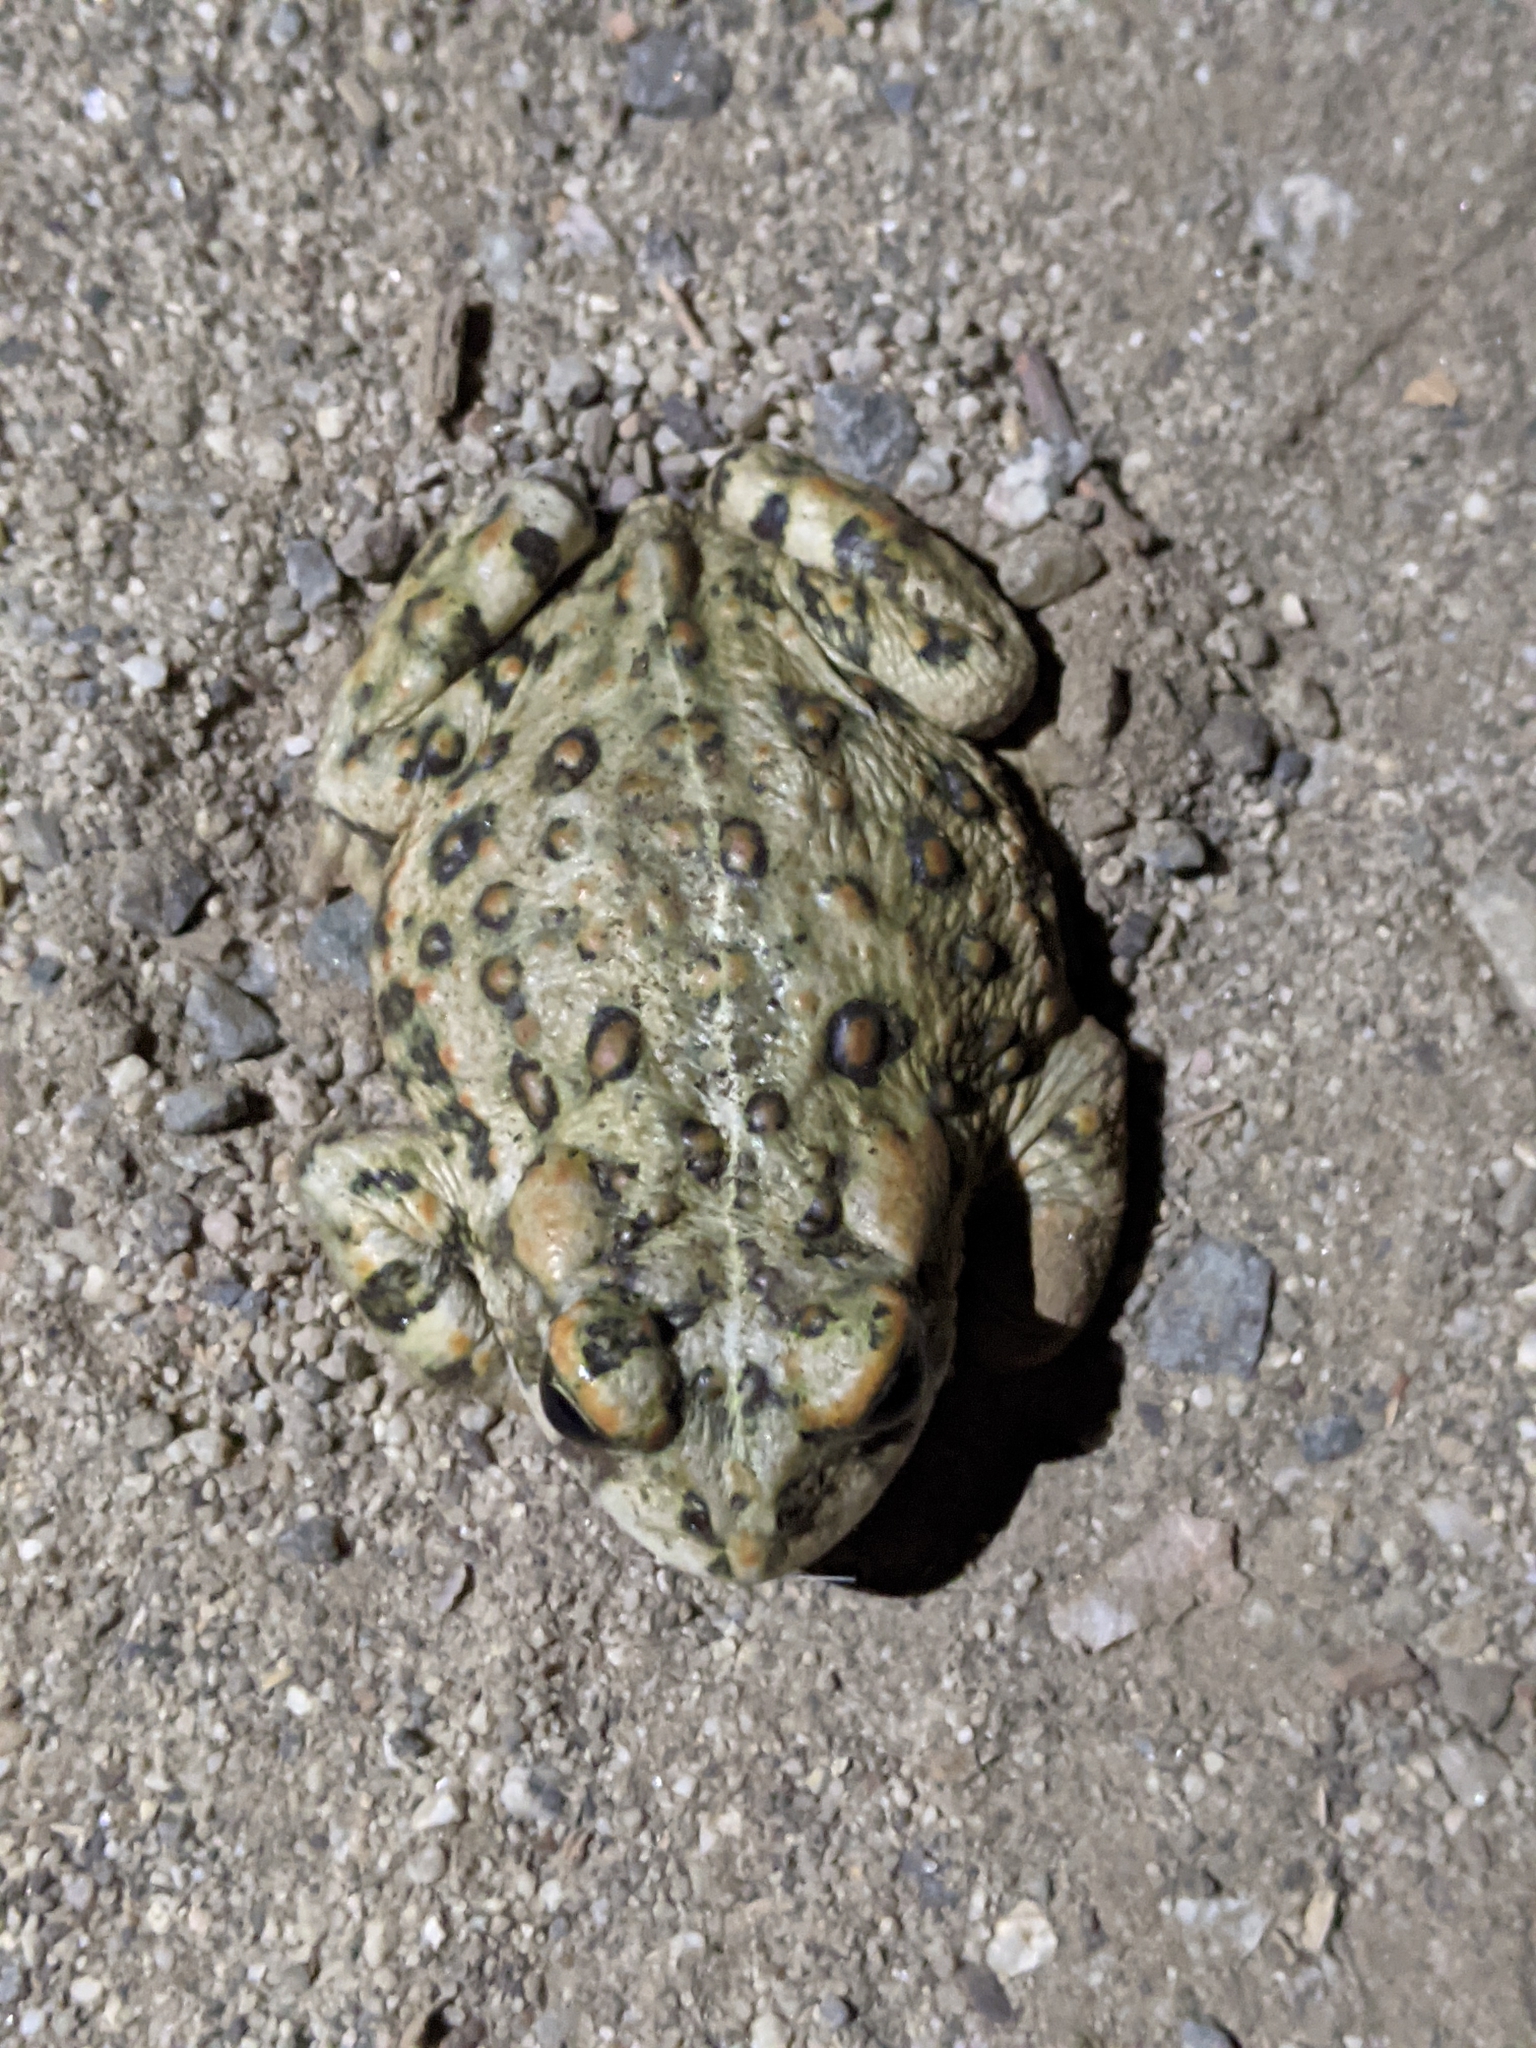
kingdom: Animalia
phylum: Chordata
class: Amphibia
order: Anura
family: Bufonidae
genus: Anaxyrus
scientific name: Anaxyrus boreas
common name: Western toad
